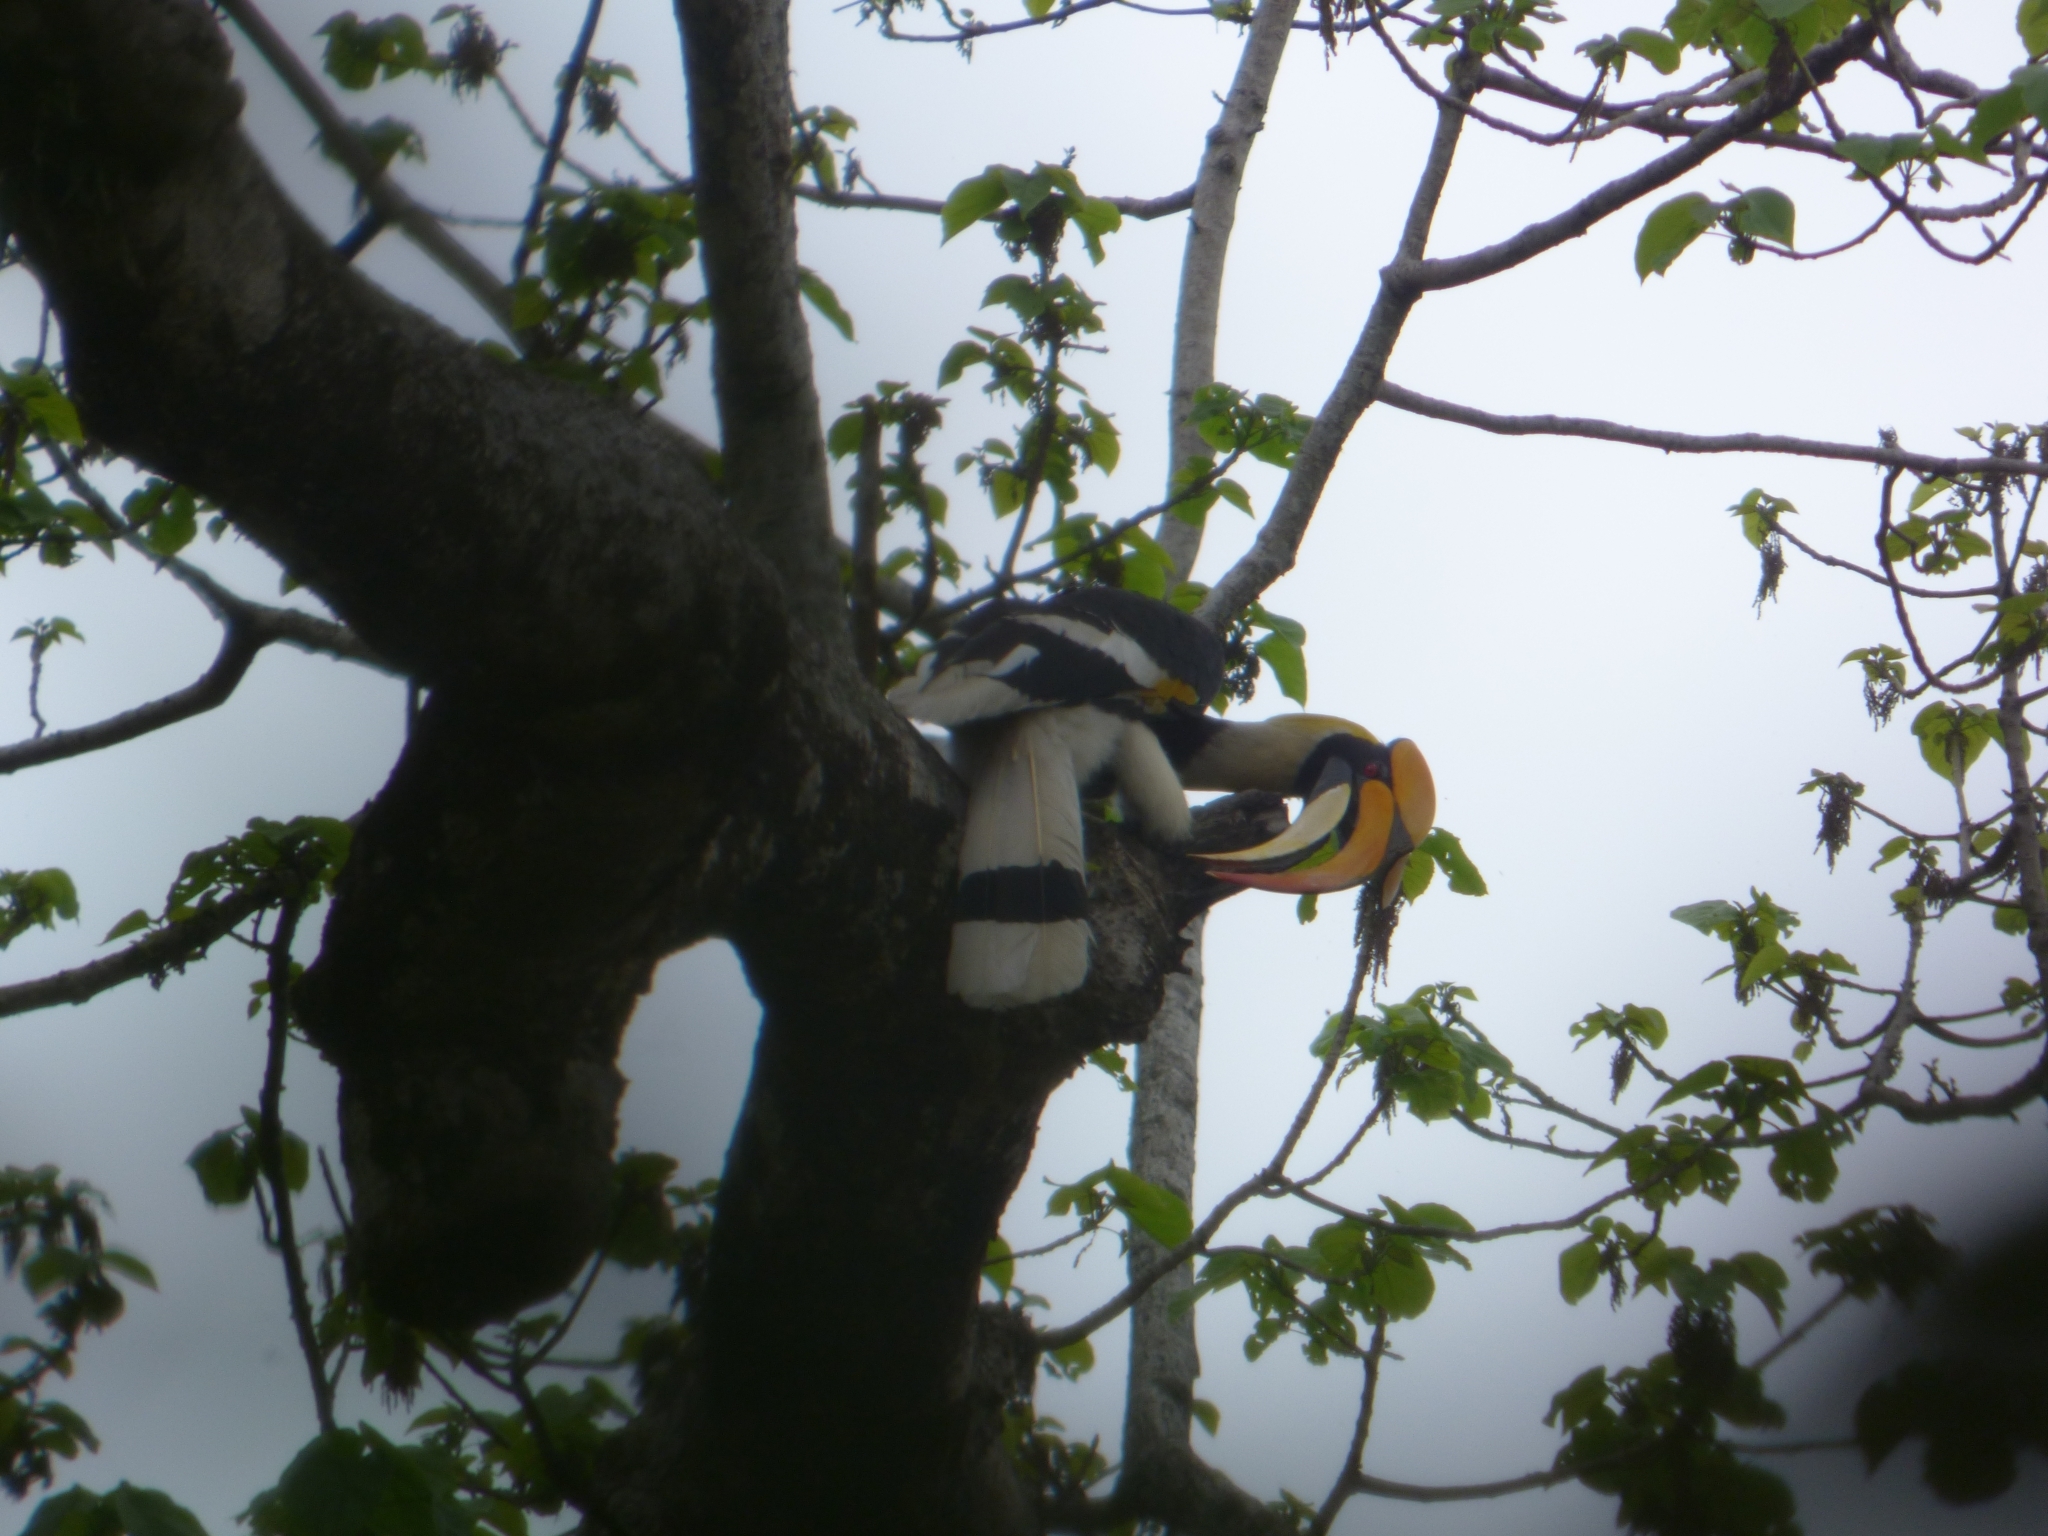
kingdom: Animalia
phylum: Chordata
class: Aves
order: Bucerotiformes
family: Bucerotidae
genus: Buceros
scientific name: Buceros bicornis
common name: Great hornbill
